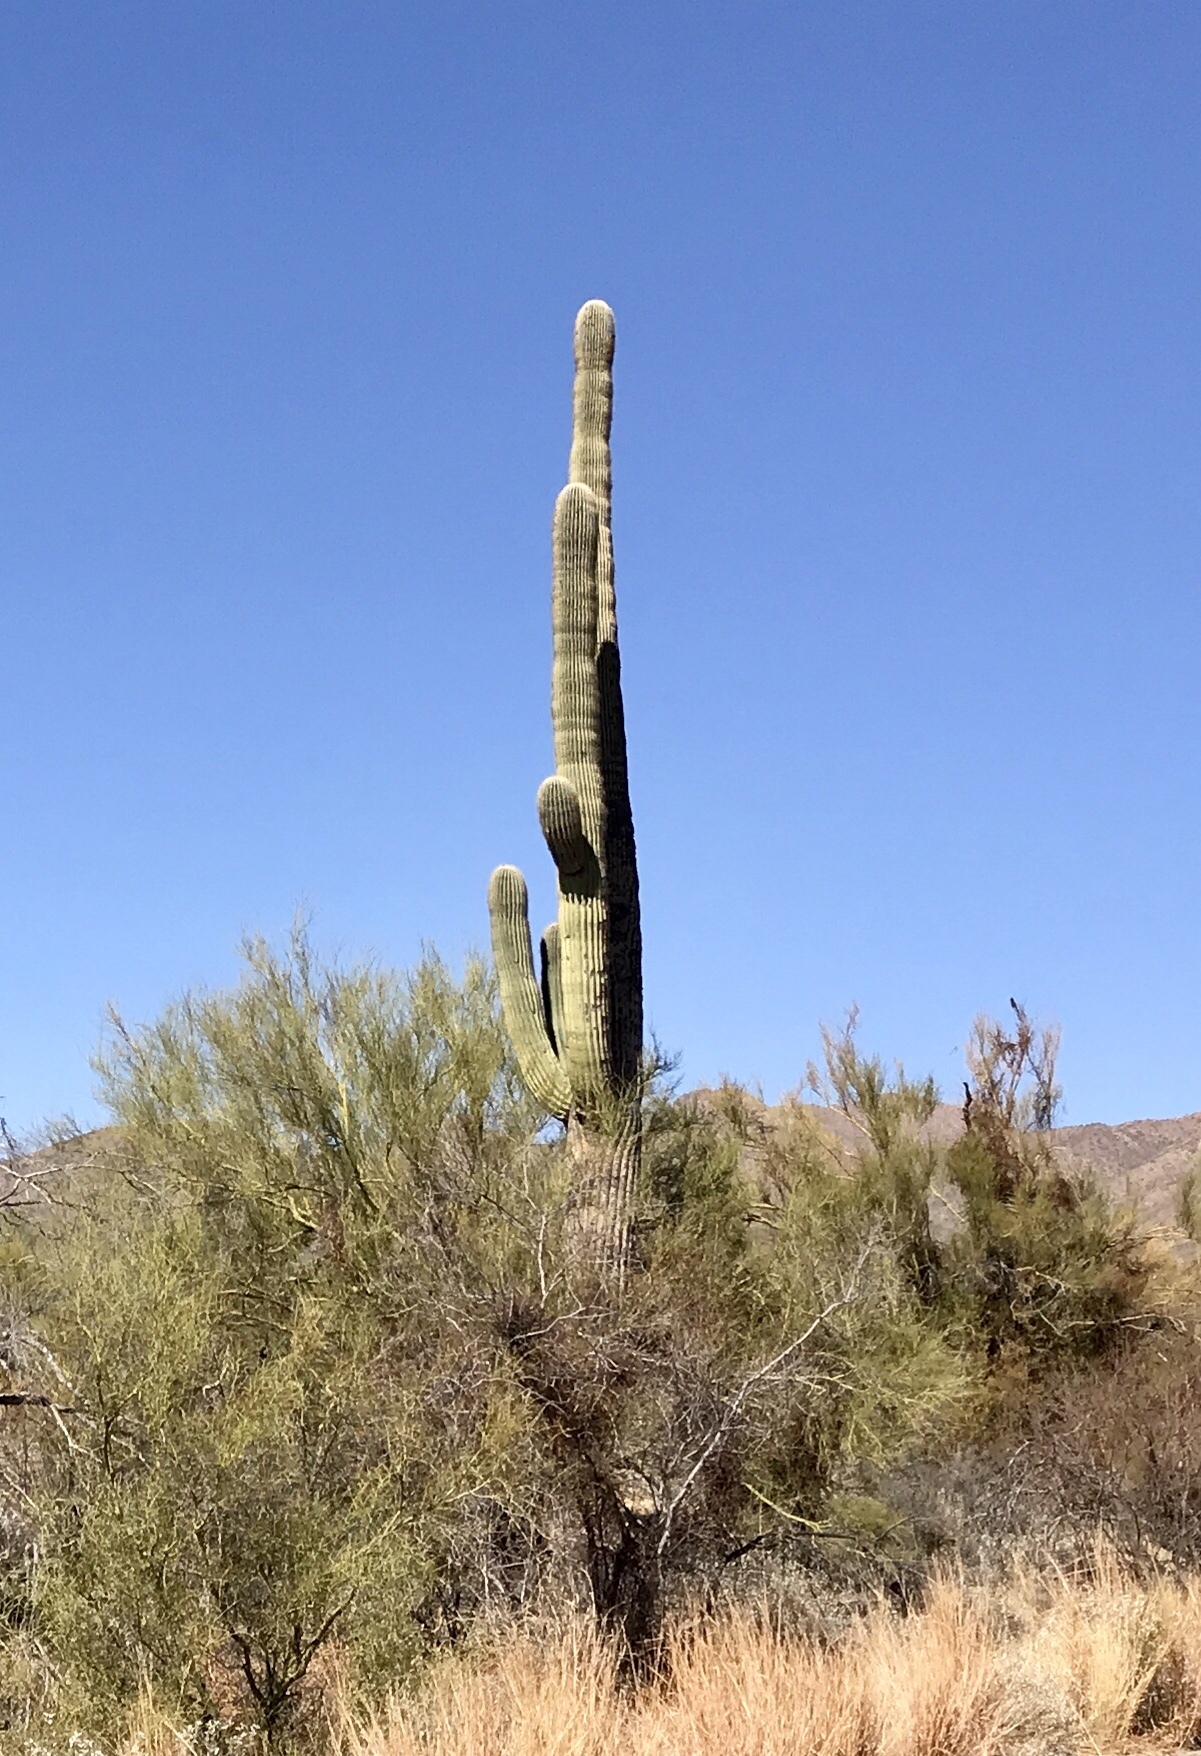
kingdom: Plantae
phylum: Tracheophyta
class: Magnoliopsida
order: Caryophyllales
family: Cactaceae
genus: Carnegiea
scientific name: Carnegiea gigantea
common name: Saguaro
